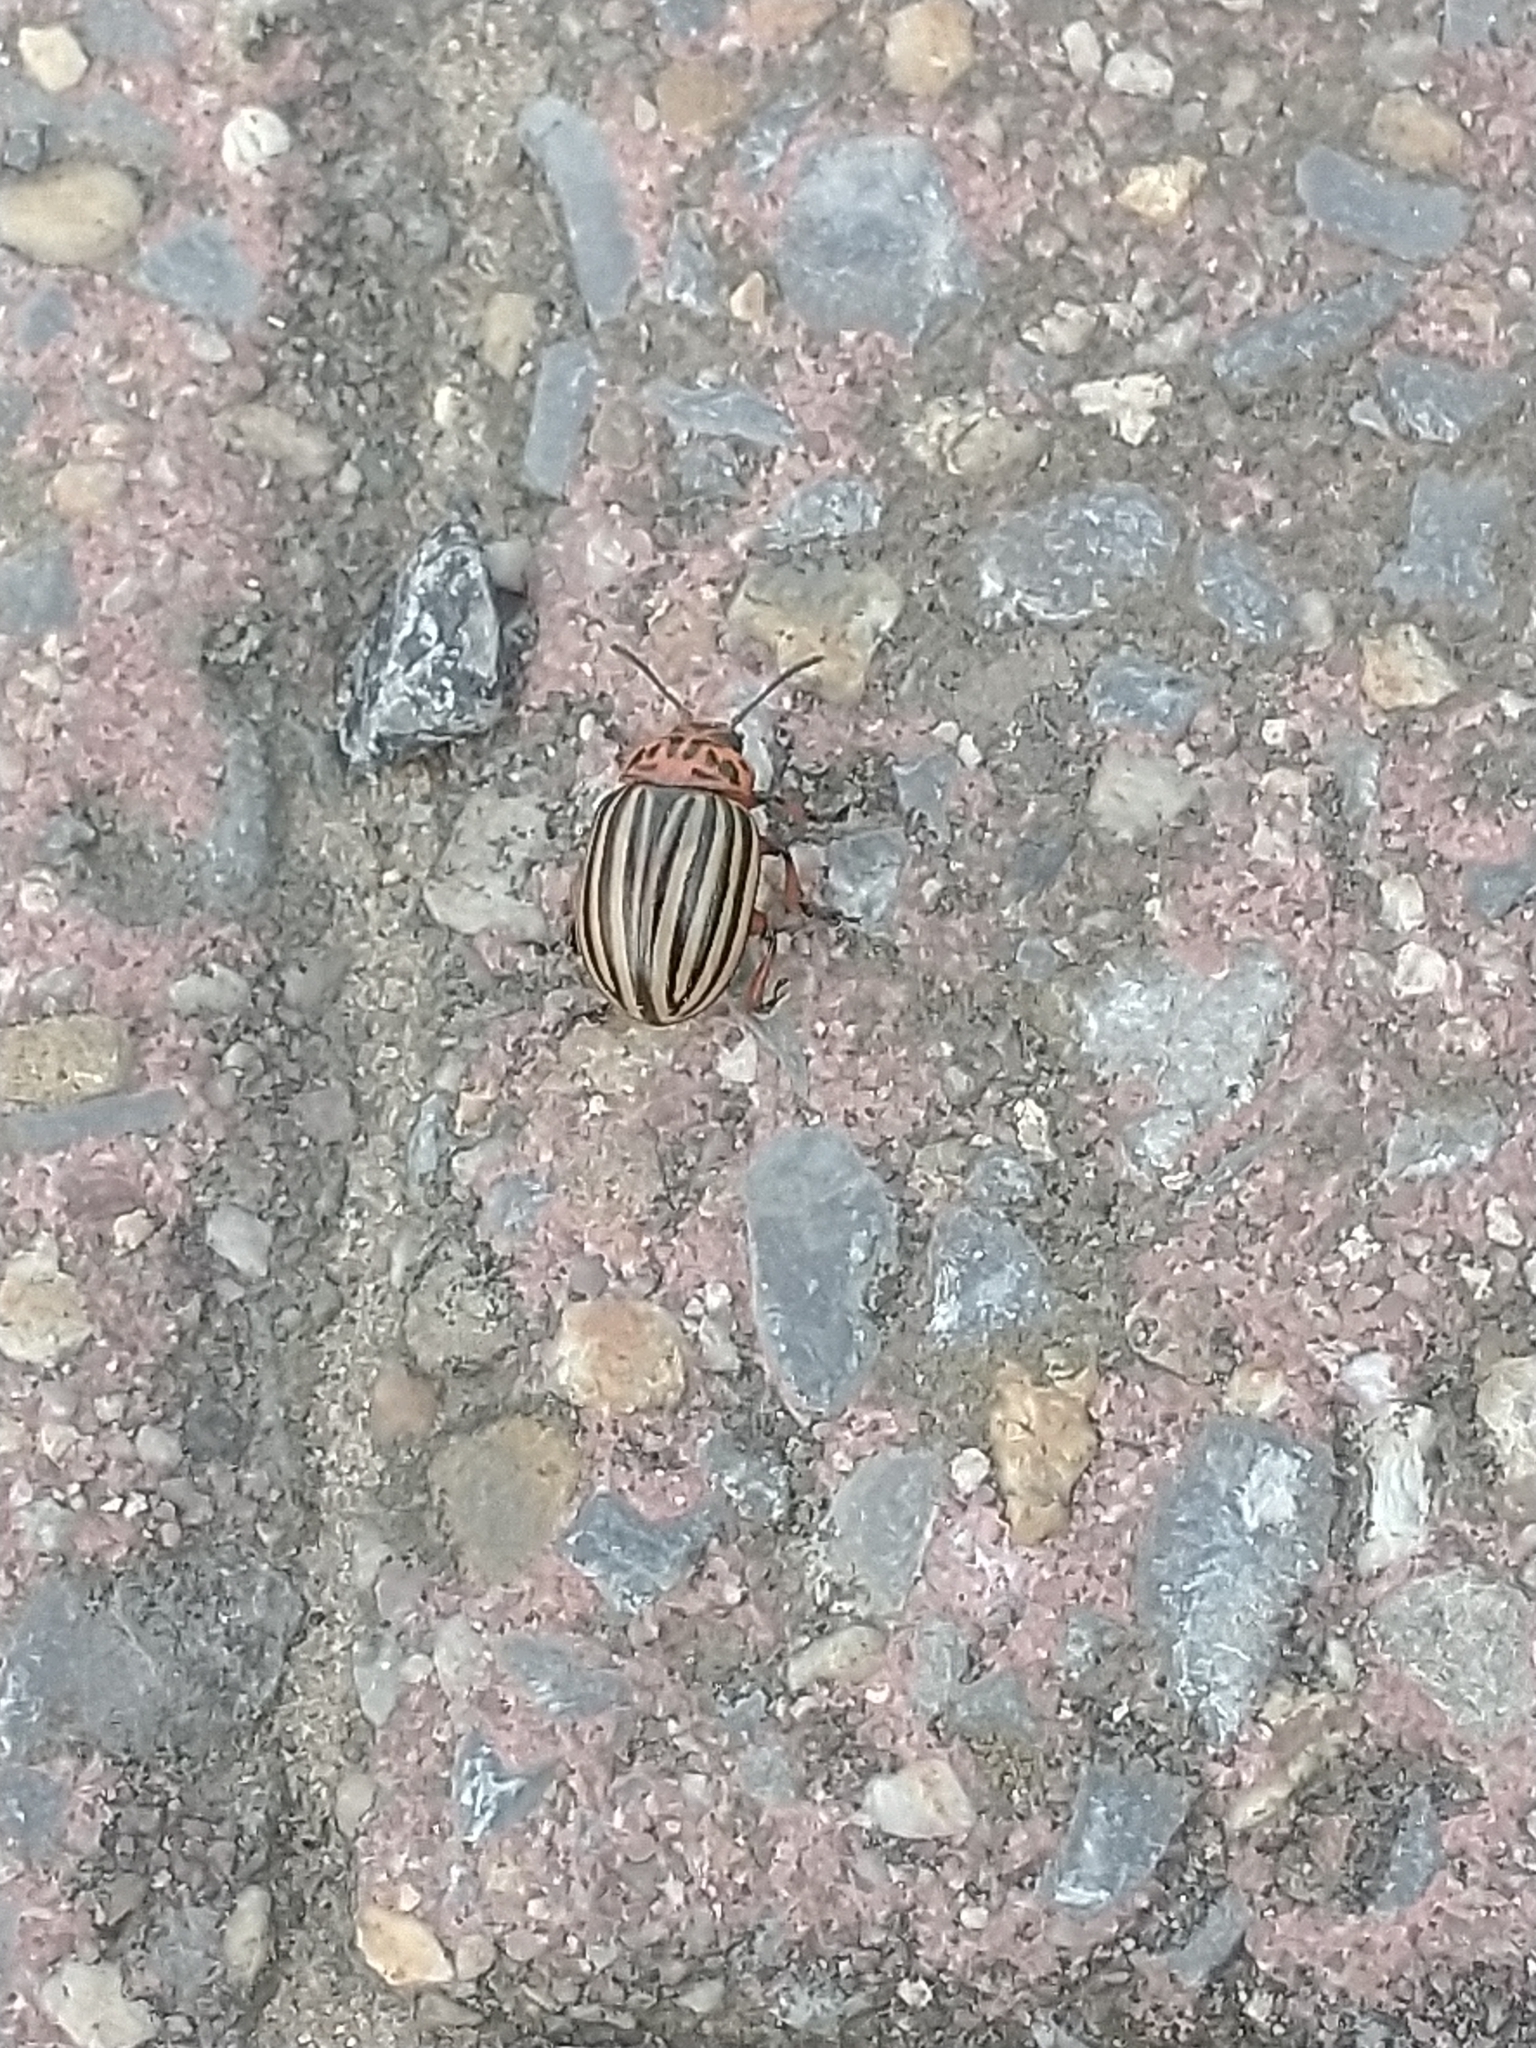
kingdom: Animalia
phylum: Arthropoda
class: Insecta
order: Coleoptera
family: Chrysomelidae
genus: Leptinotarsa
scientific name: Leptinotarsa decemlineata
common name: Colorado potato beetle
